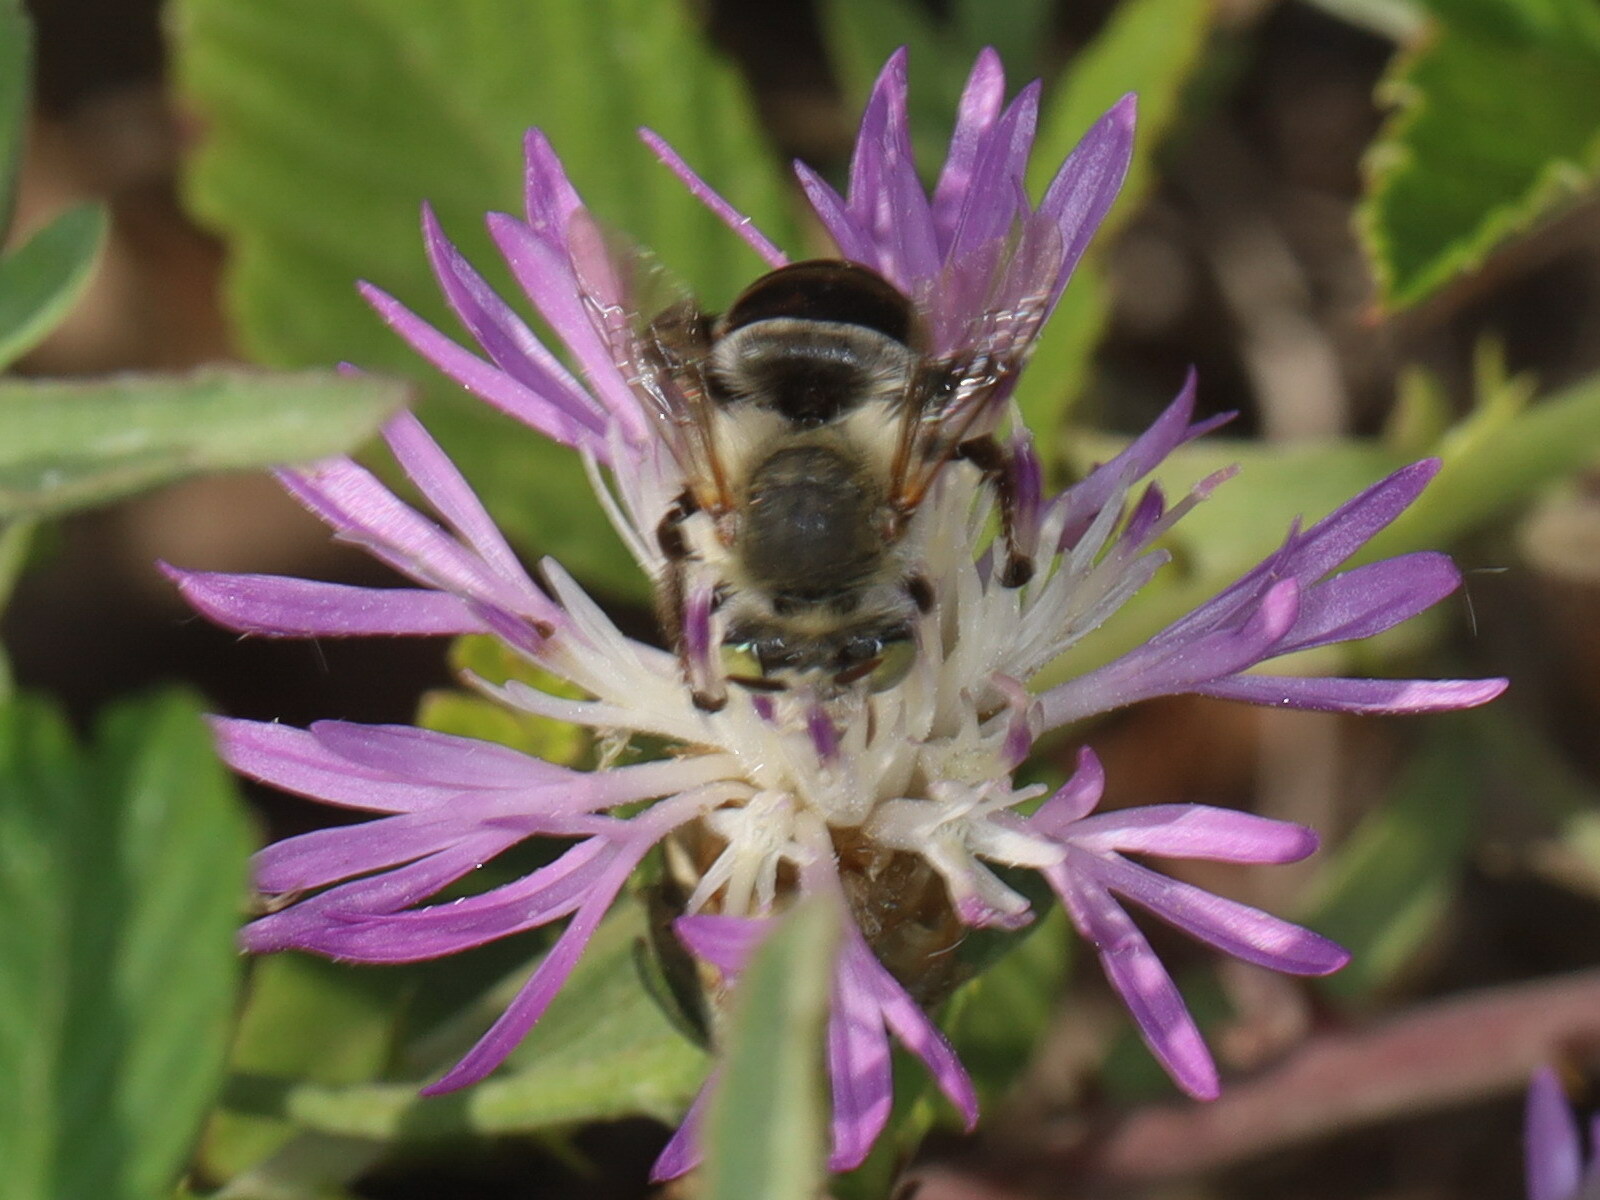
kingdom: Animalia
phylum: Arthropoda
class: Insecta
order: Hymenoptera
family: Apidae
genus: Anthophora
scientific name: Anthophora fulvodimidiata
